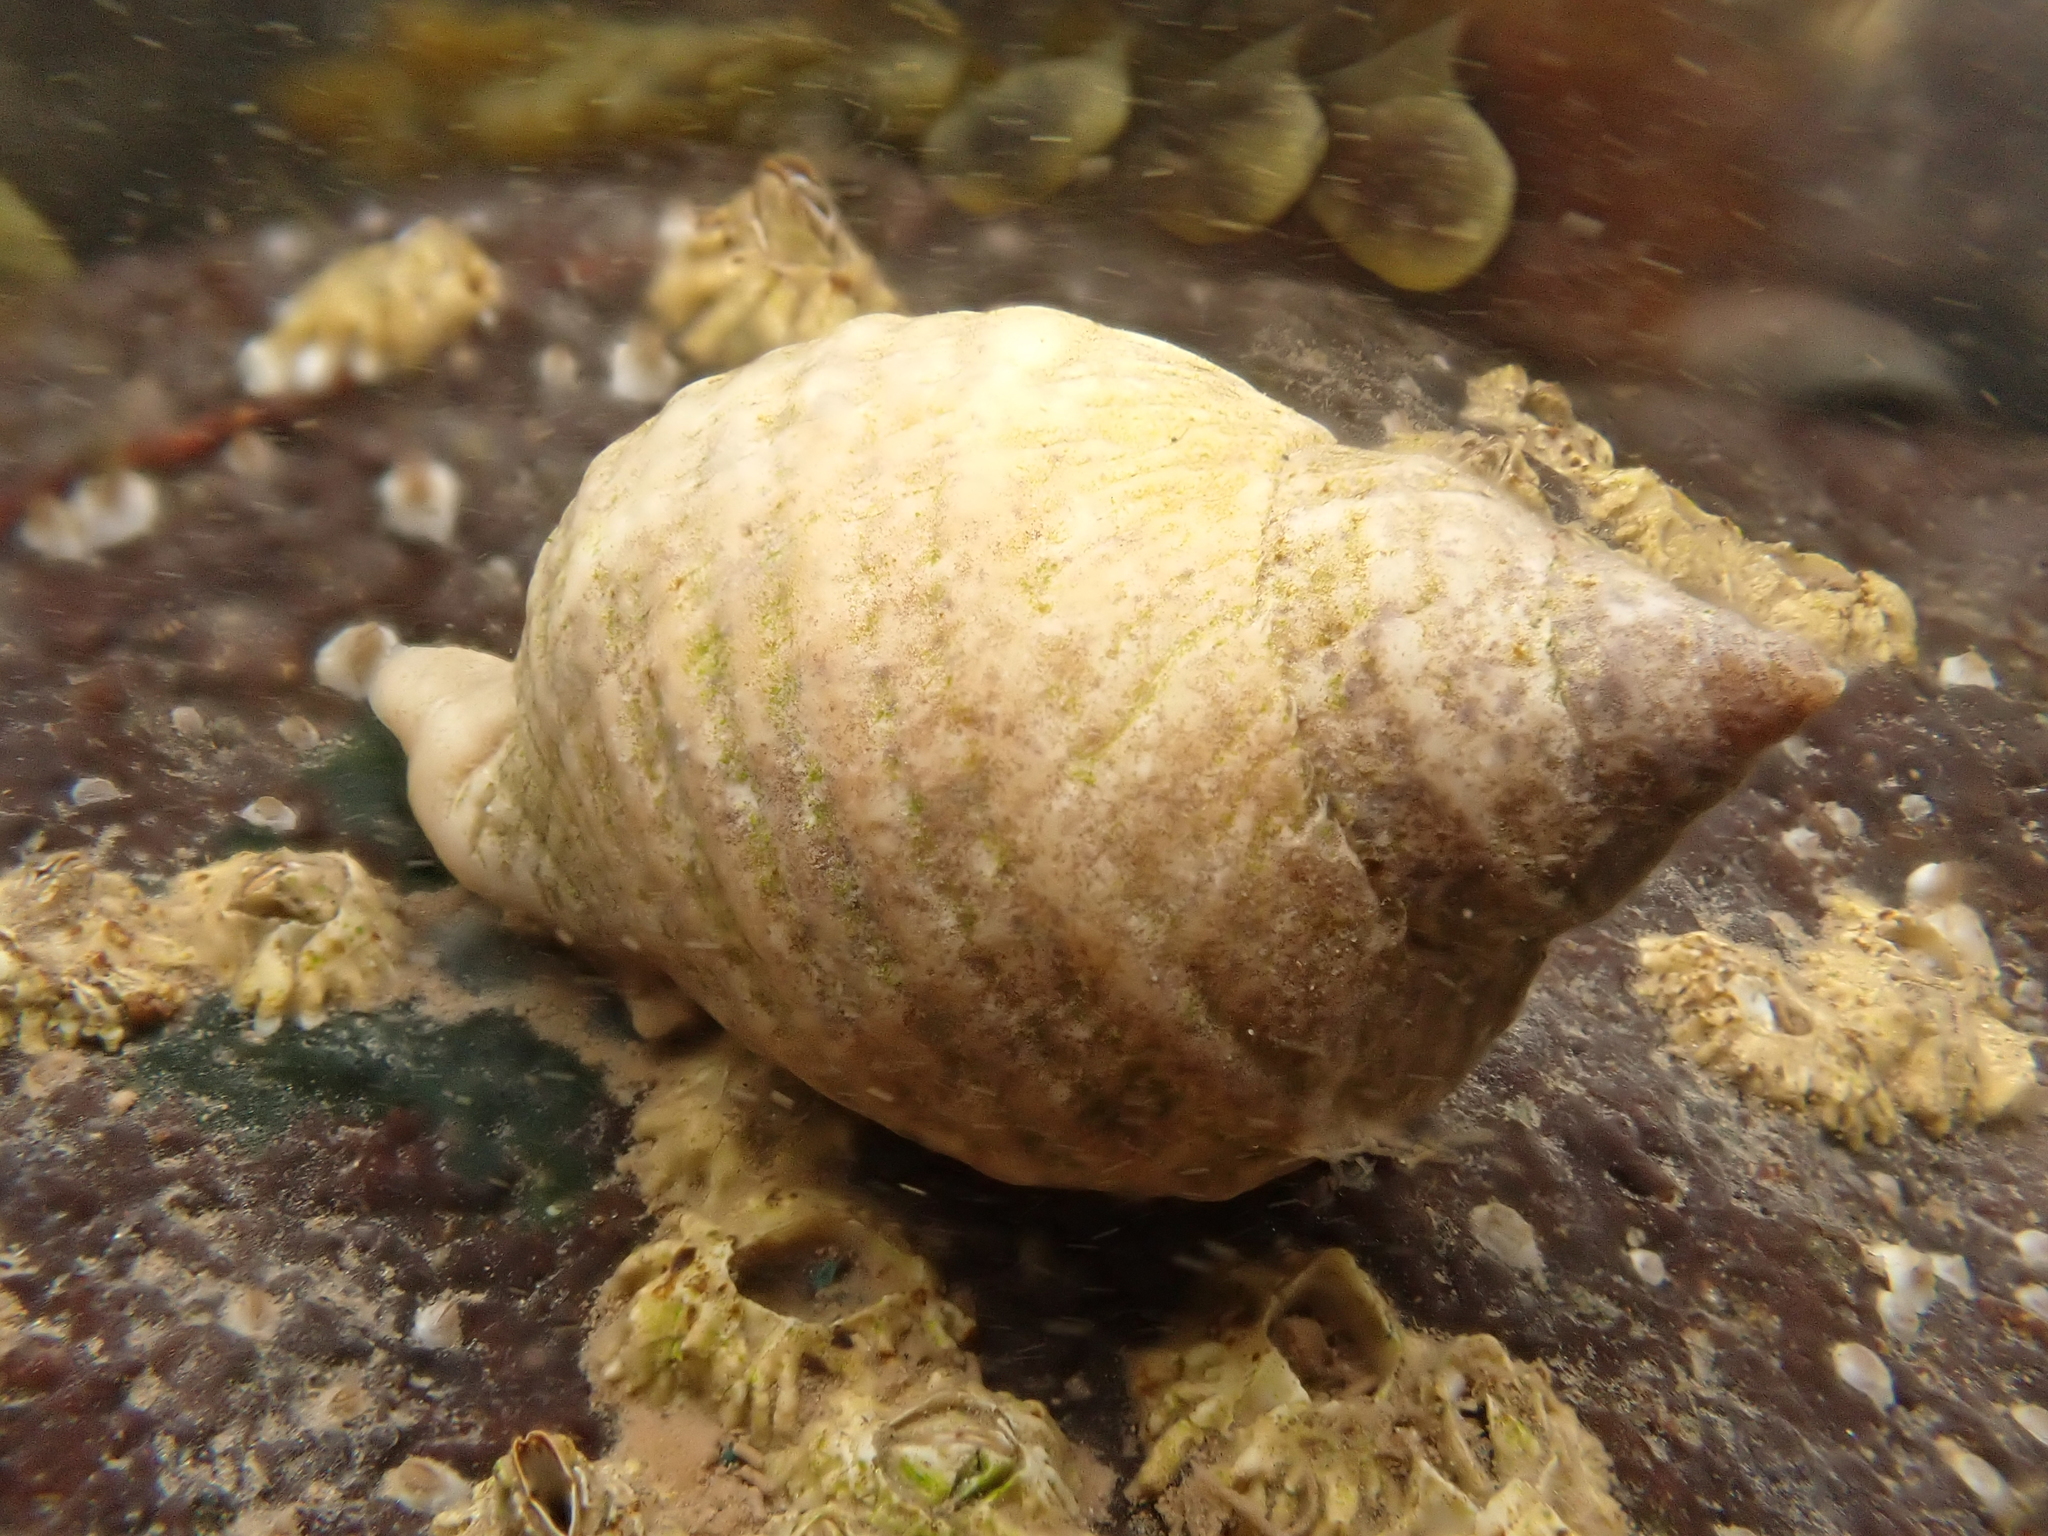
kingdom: Animalia
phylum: Mollusca
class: Gastropoda
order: Neogastropoda
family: Muricidae
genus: Nucella
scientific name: Nucella lapillus
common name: Dog whelk
